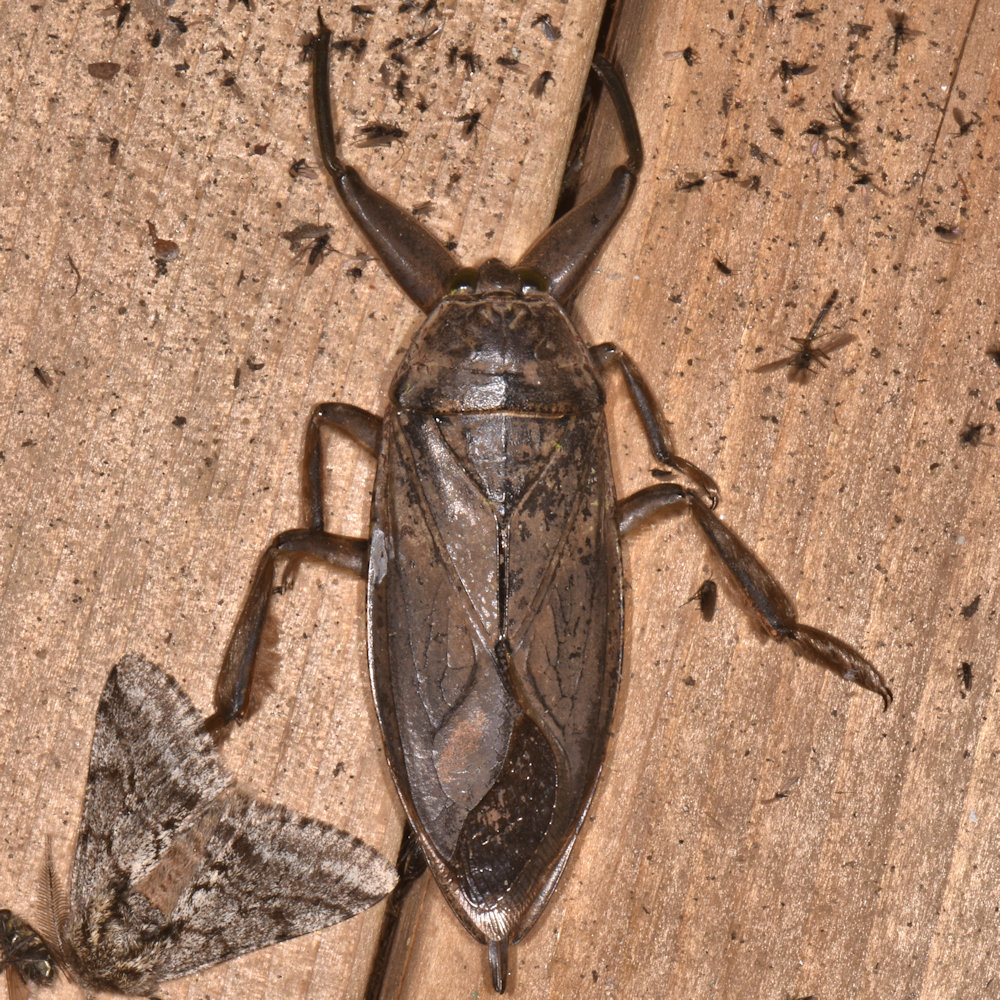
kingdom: Animalia
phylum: Arthropoda
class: Insecta
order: Hemiptera
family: Belostomatidae
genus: Lethocerus
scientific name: Lethocerus americanus
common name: Giant water bug
